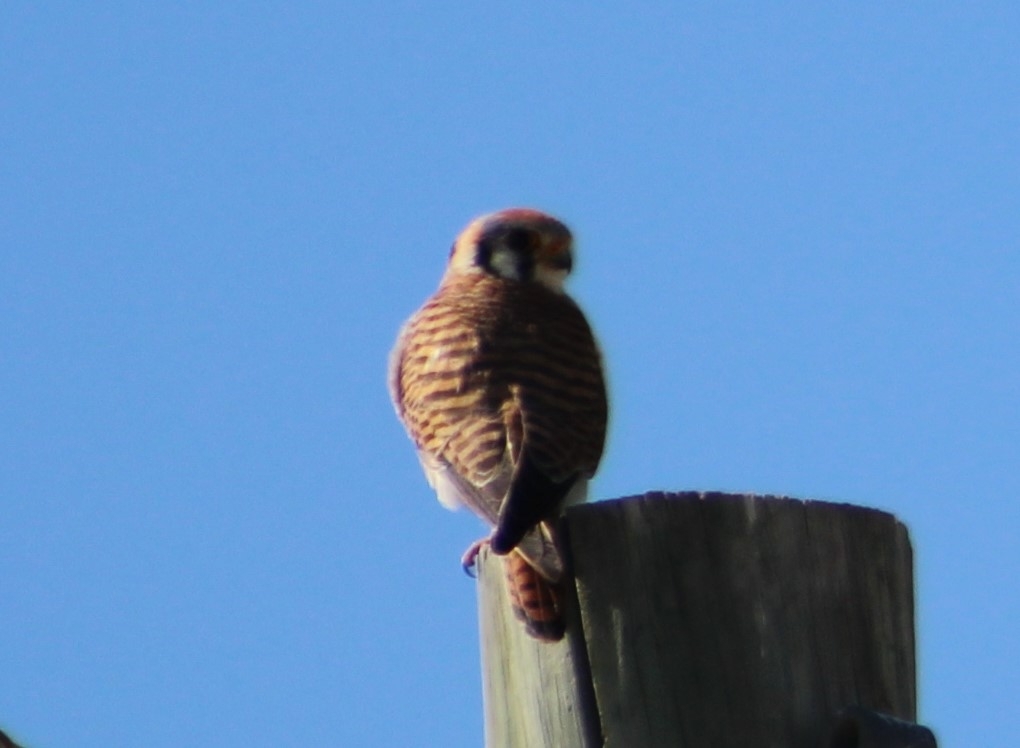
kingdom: Animalia
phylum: Chordata
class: Aves
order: Falconiformes
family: Falconidae
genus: Falco
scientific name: Falco sparverius
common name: American kestrel
